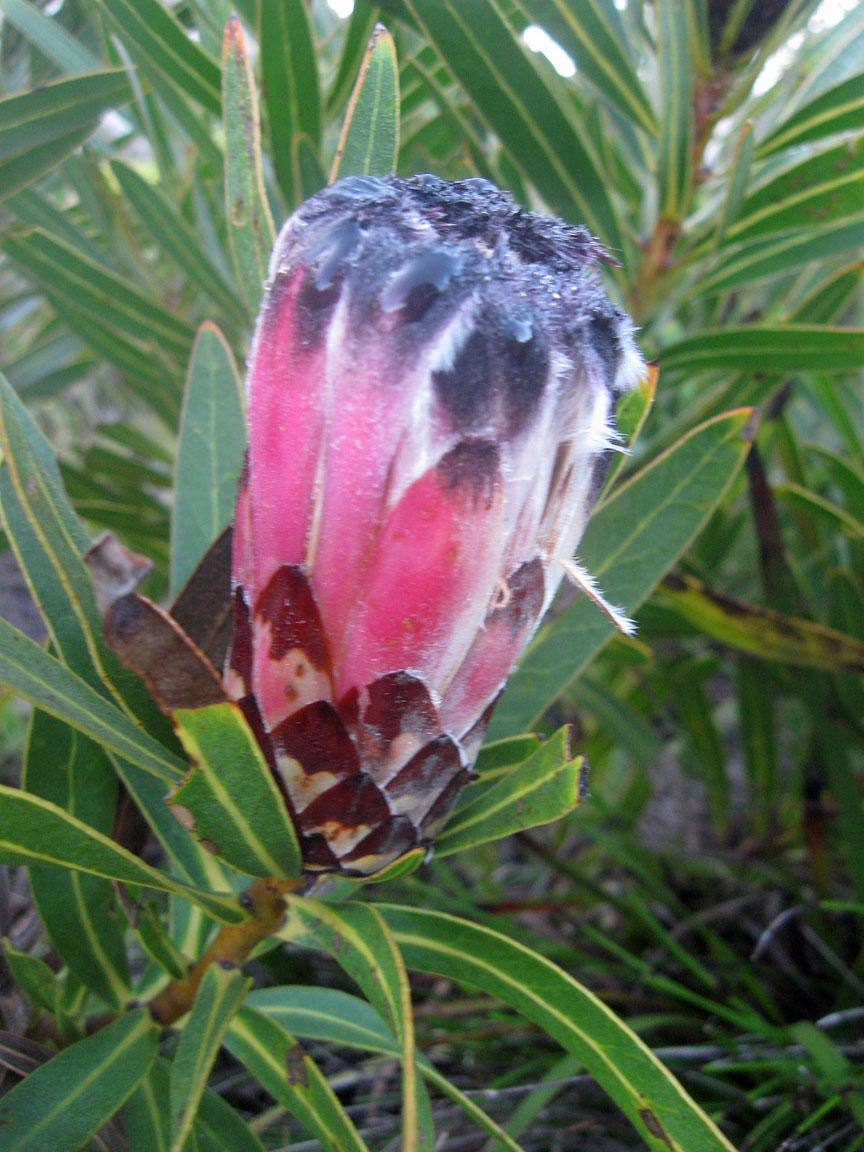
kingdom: Plantae
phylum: Tracheophyta
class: Magnoliopsida
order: Proteales
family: Proteaceae
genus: Protea
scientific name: Protea
